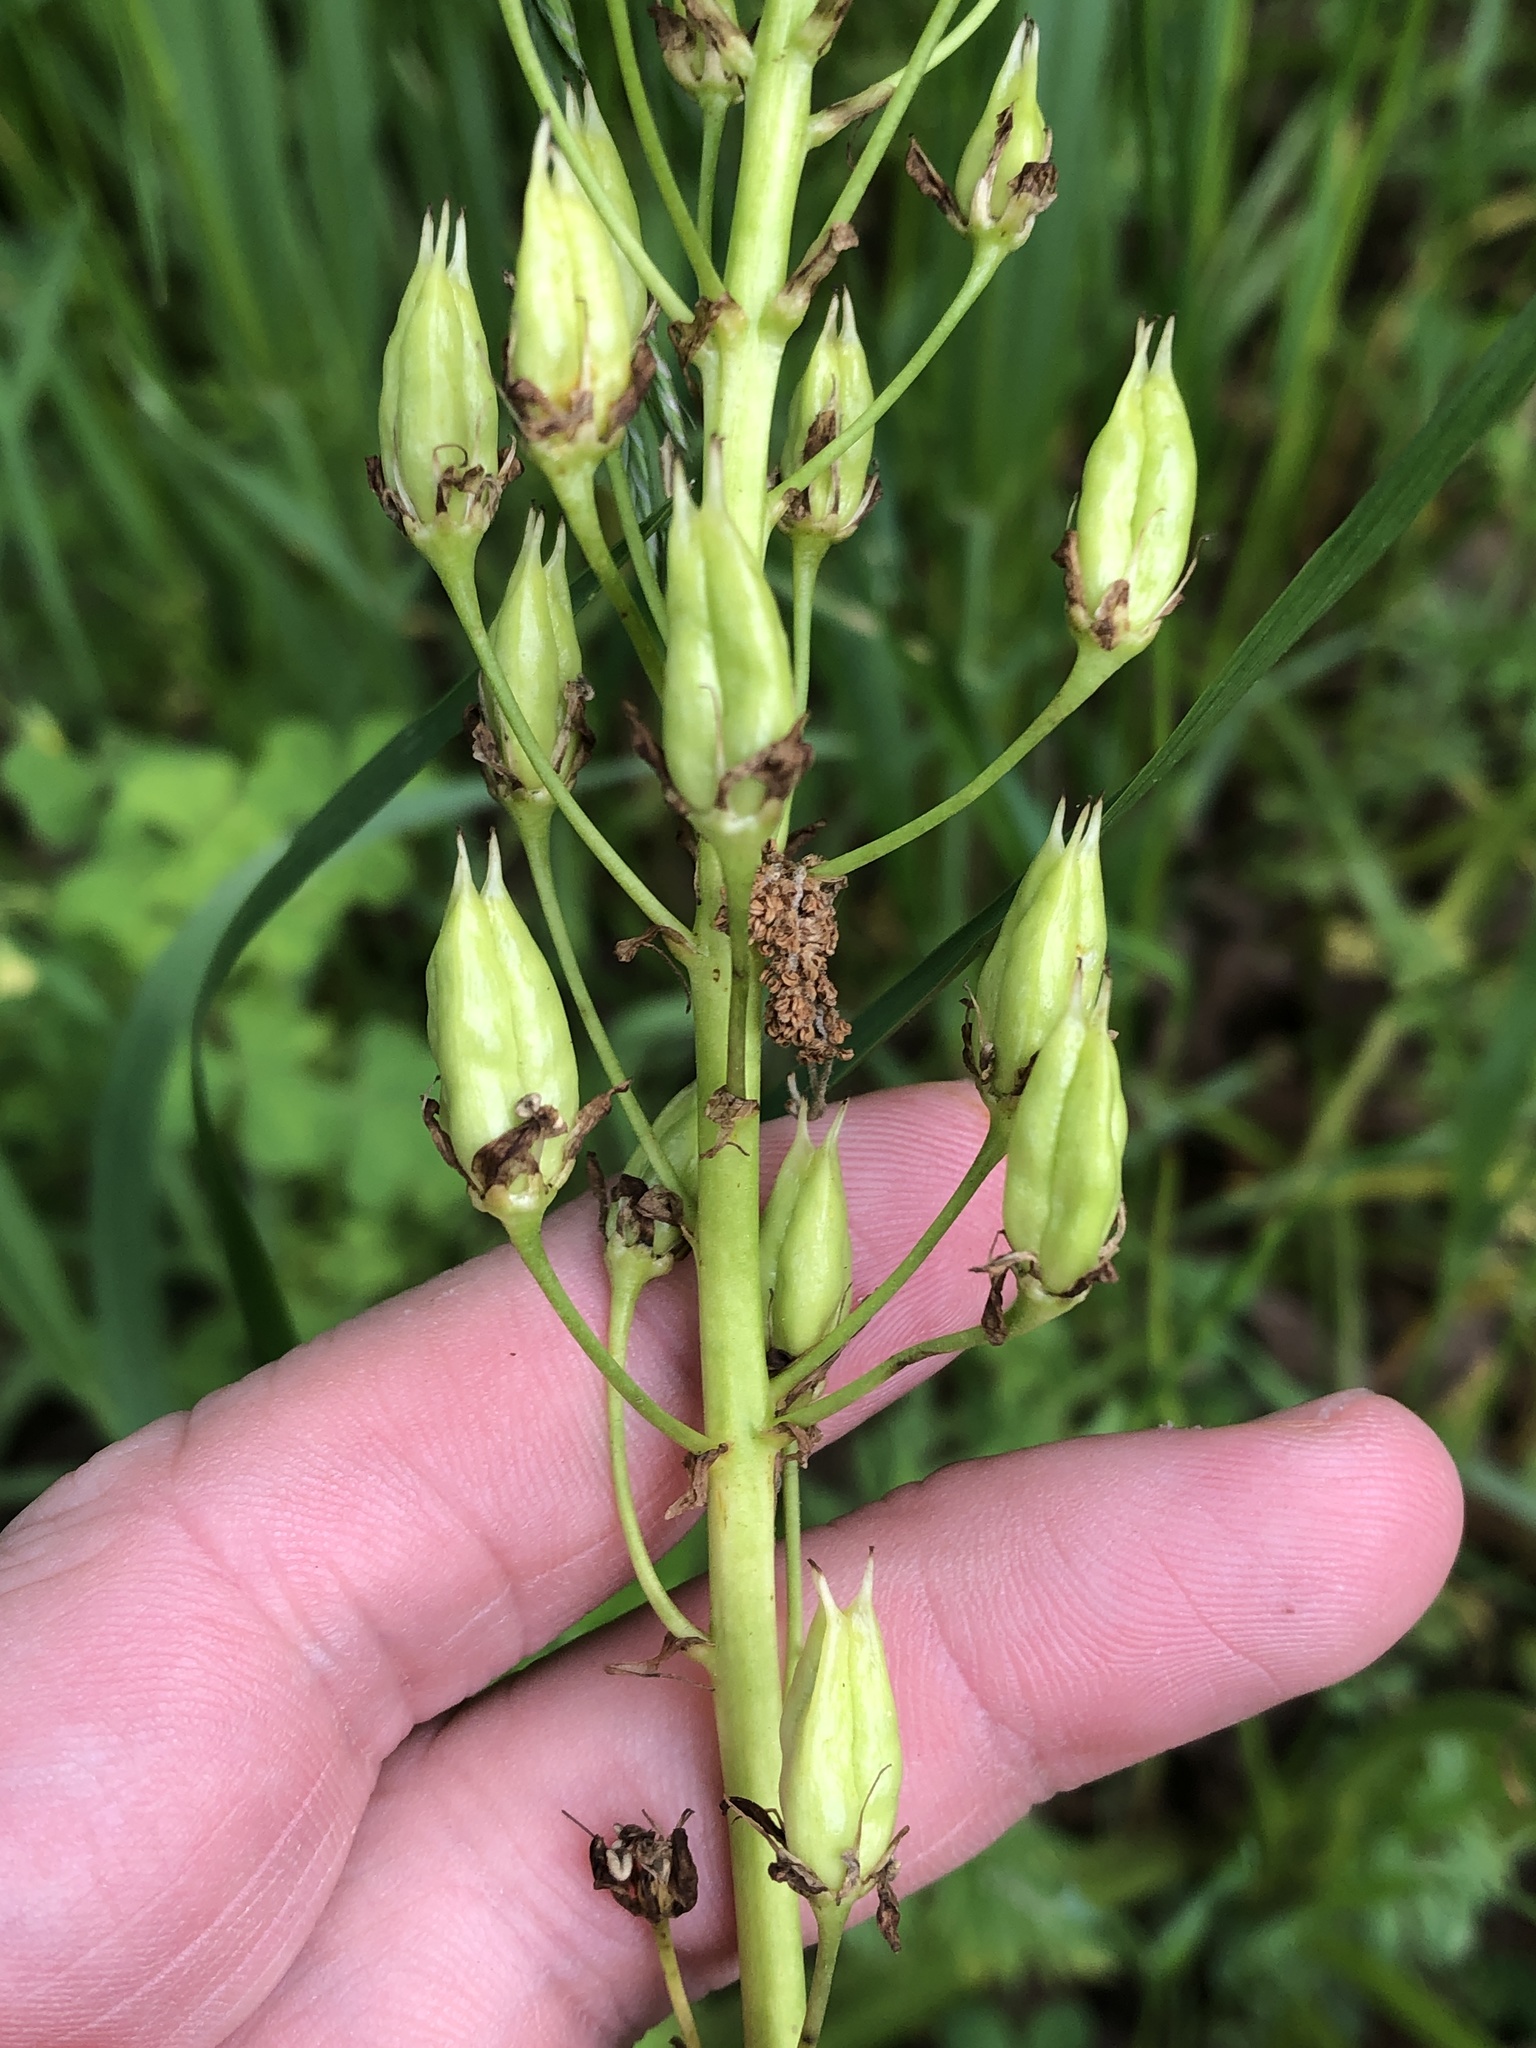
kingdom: Plantae
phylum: Tracheophyta
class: Liliopsida
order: Liliales
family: Melanthiaceae
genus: Toxicoscordion
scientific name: Toxicoscordion nuttallii
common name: Poison sego
